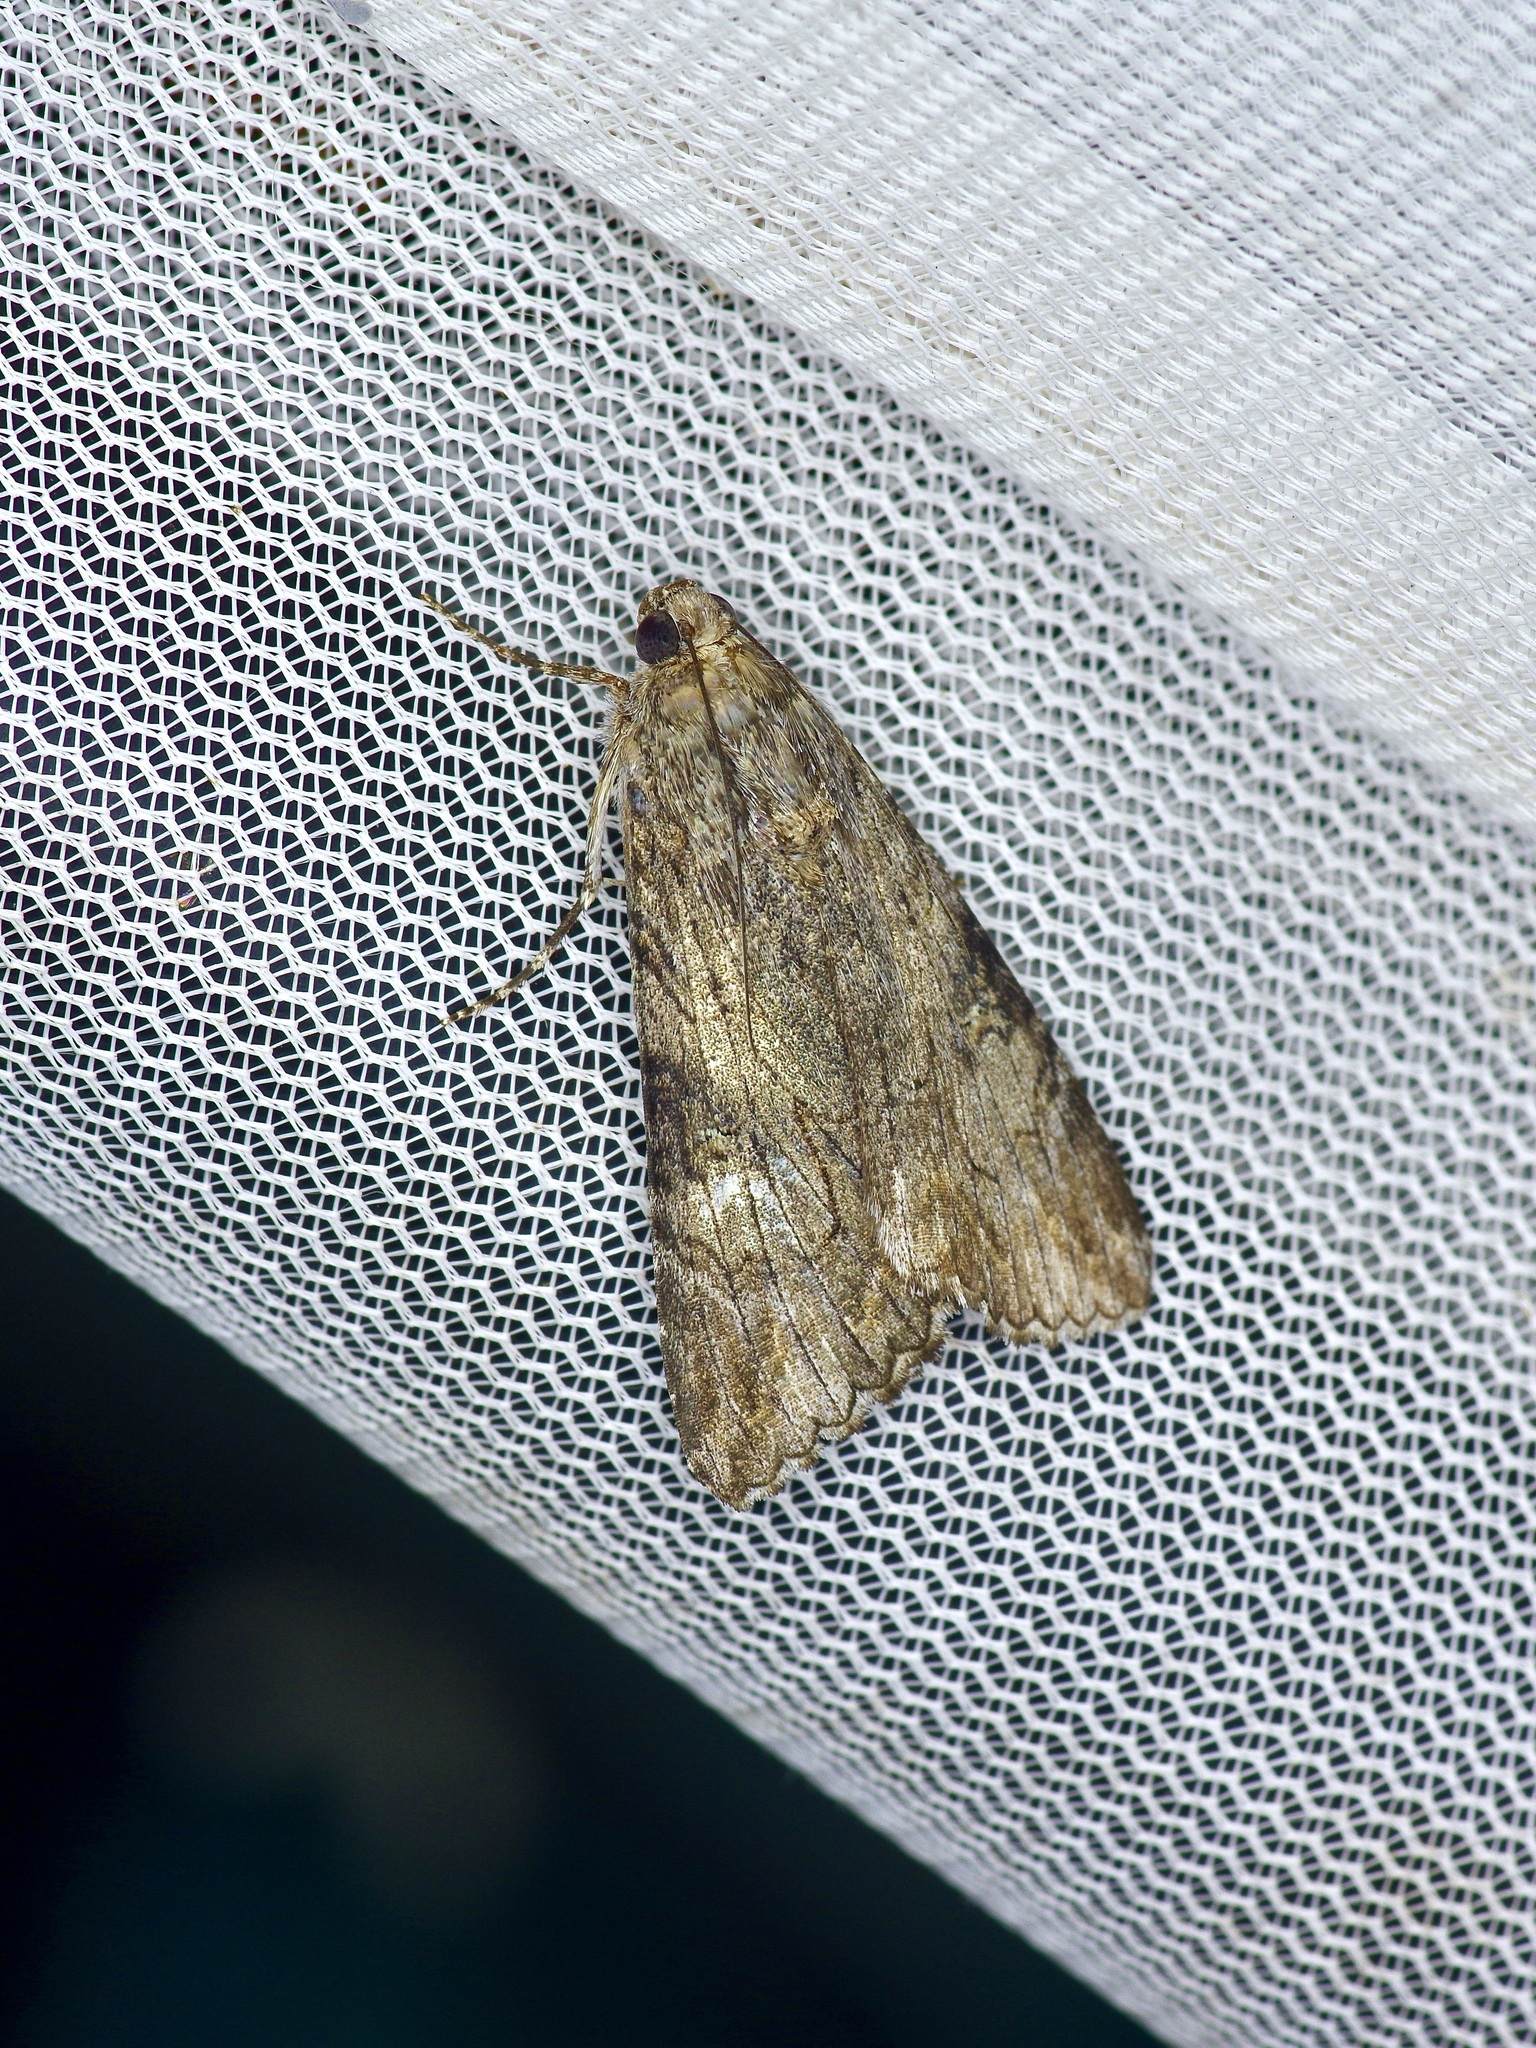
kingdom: Animalia
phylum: Arthropoda
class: Insecta
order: Lepidoptera
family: Erebidae
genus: Melipotis
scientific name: Melipotis jucunda
